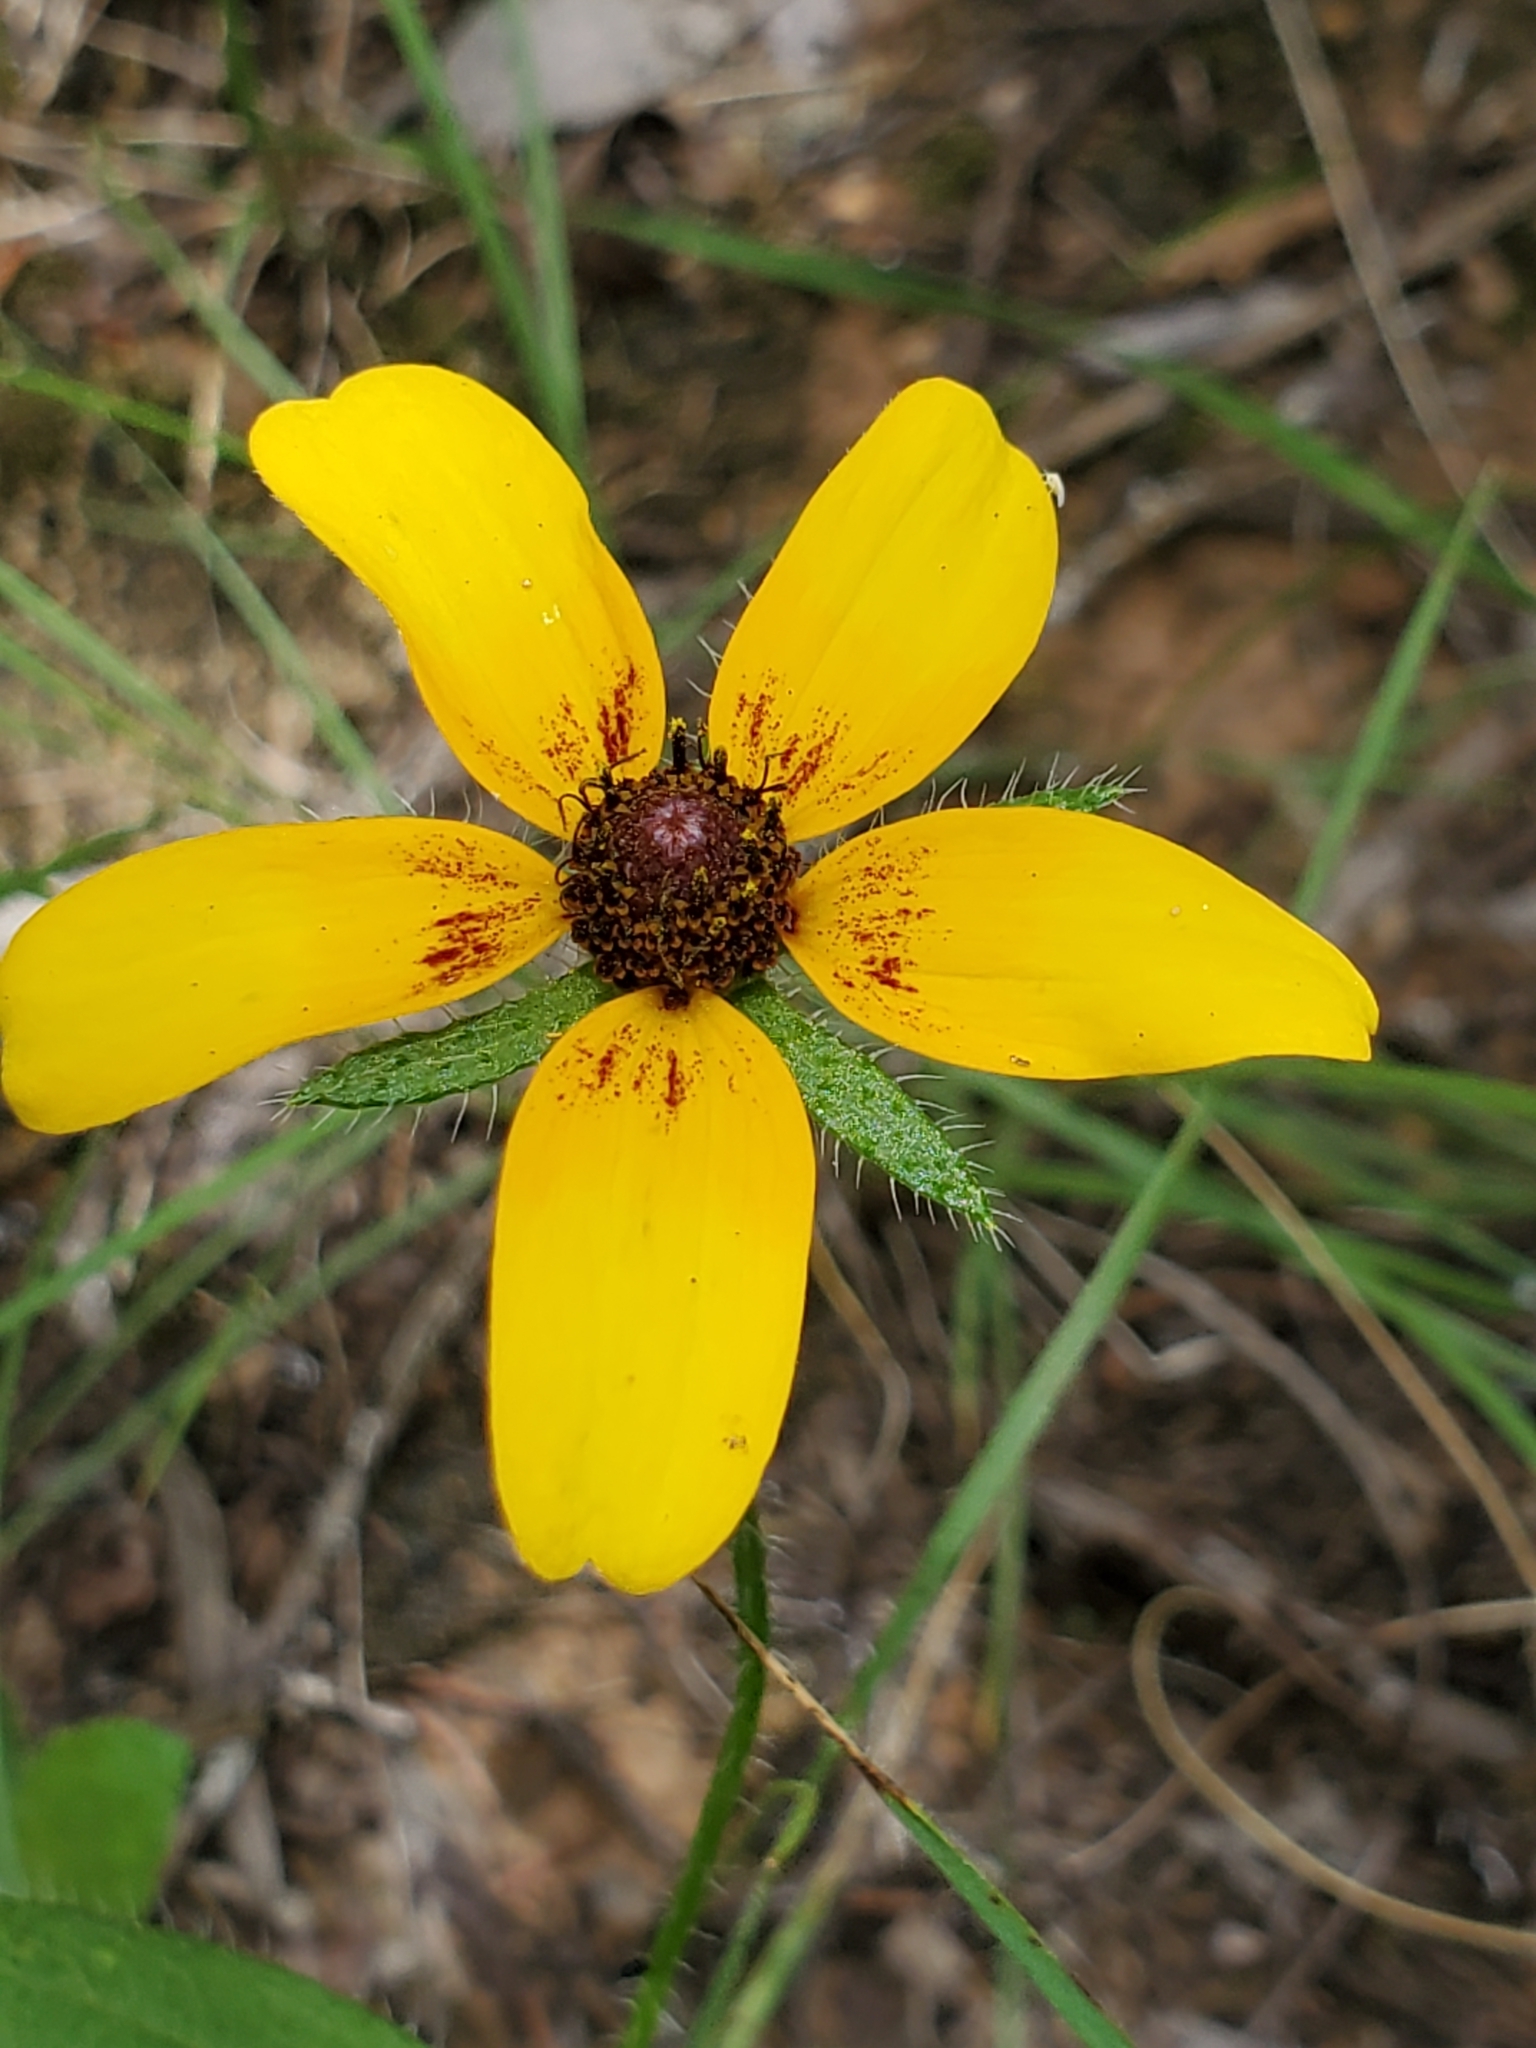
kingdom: Plantae
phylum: Tracheophyta
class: Magnoliopsida
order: Asterales
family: Asteraceae
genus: Rudbeckia
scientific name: Rudbeckia hirta
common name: Black-eyed-susan
